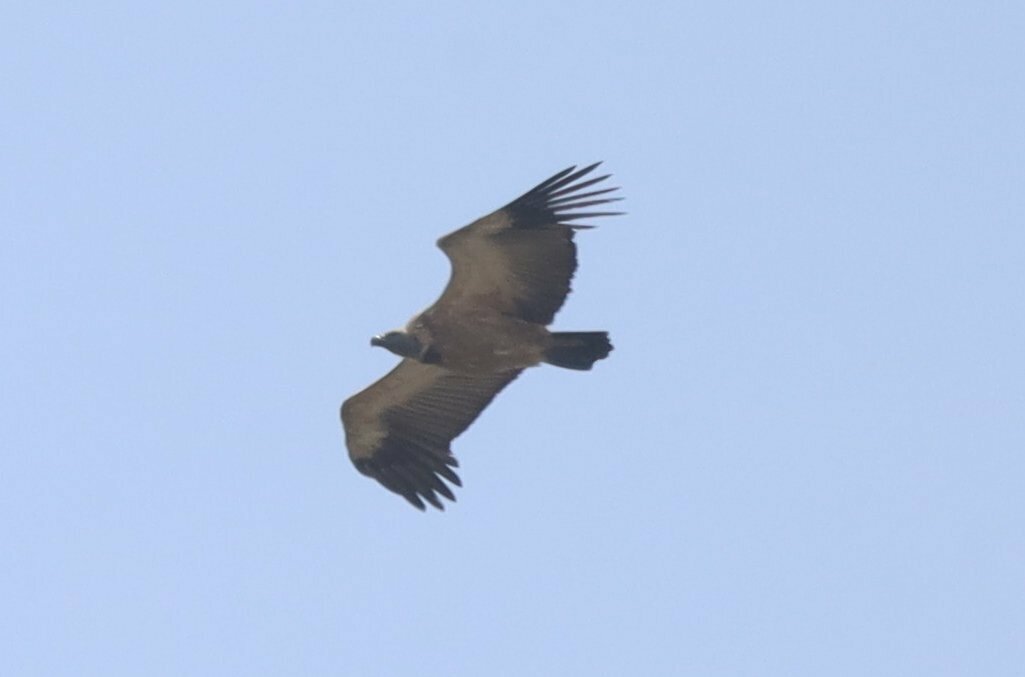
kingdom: Animalia
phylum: Chordata
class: Aves
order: Accipitriformes
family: Accipitridae
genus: Gyps
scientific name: Gyps coprotheres
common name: Cape vulture
